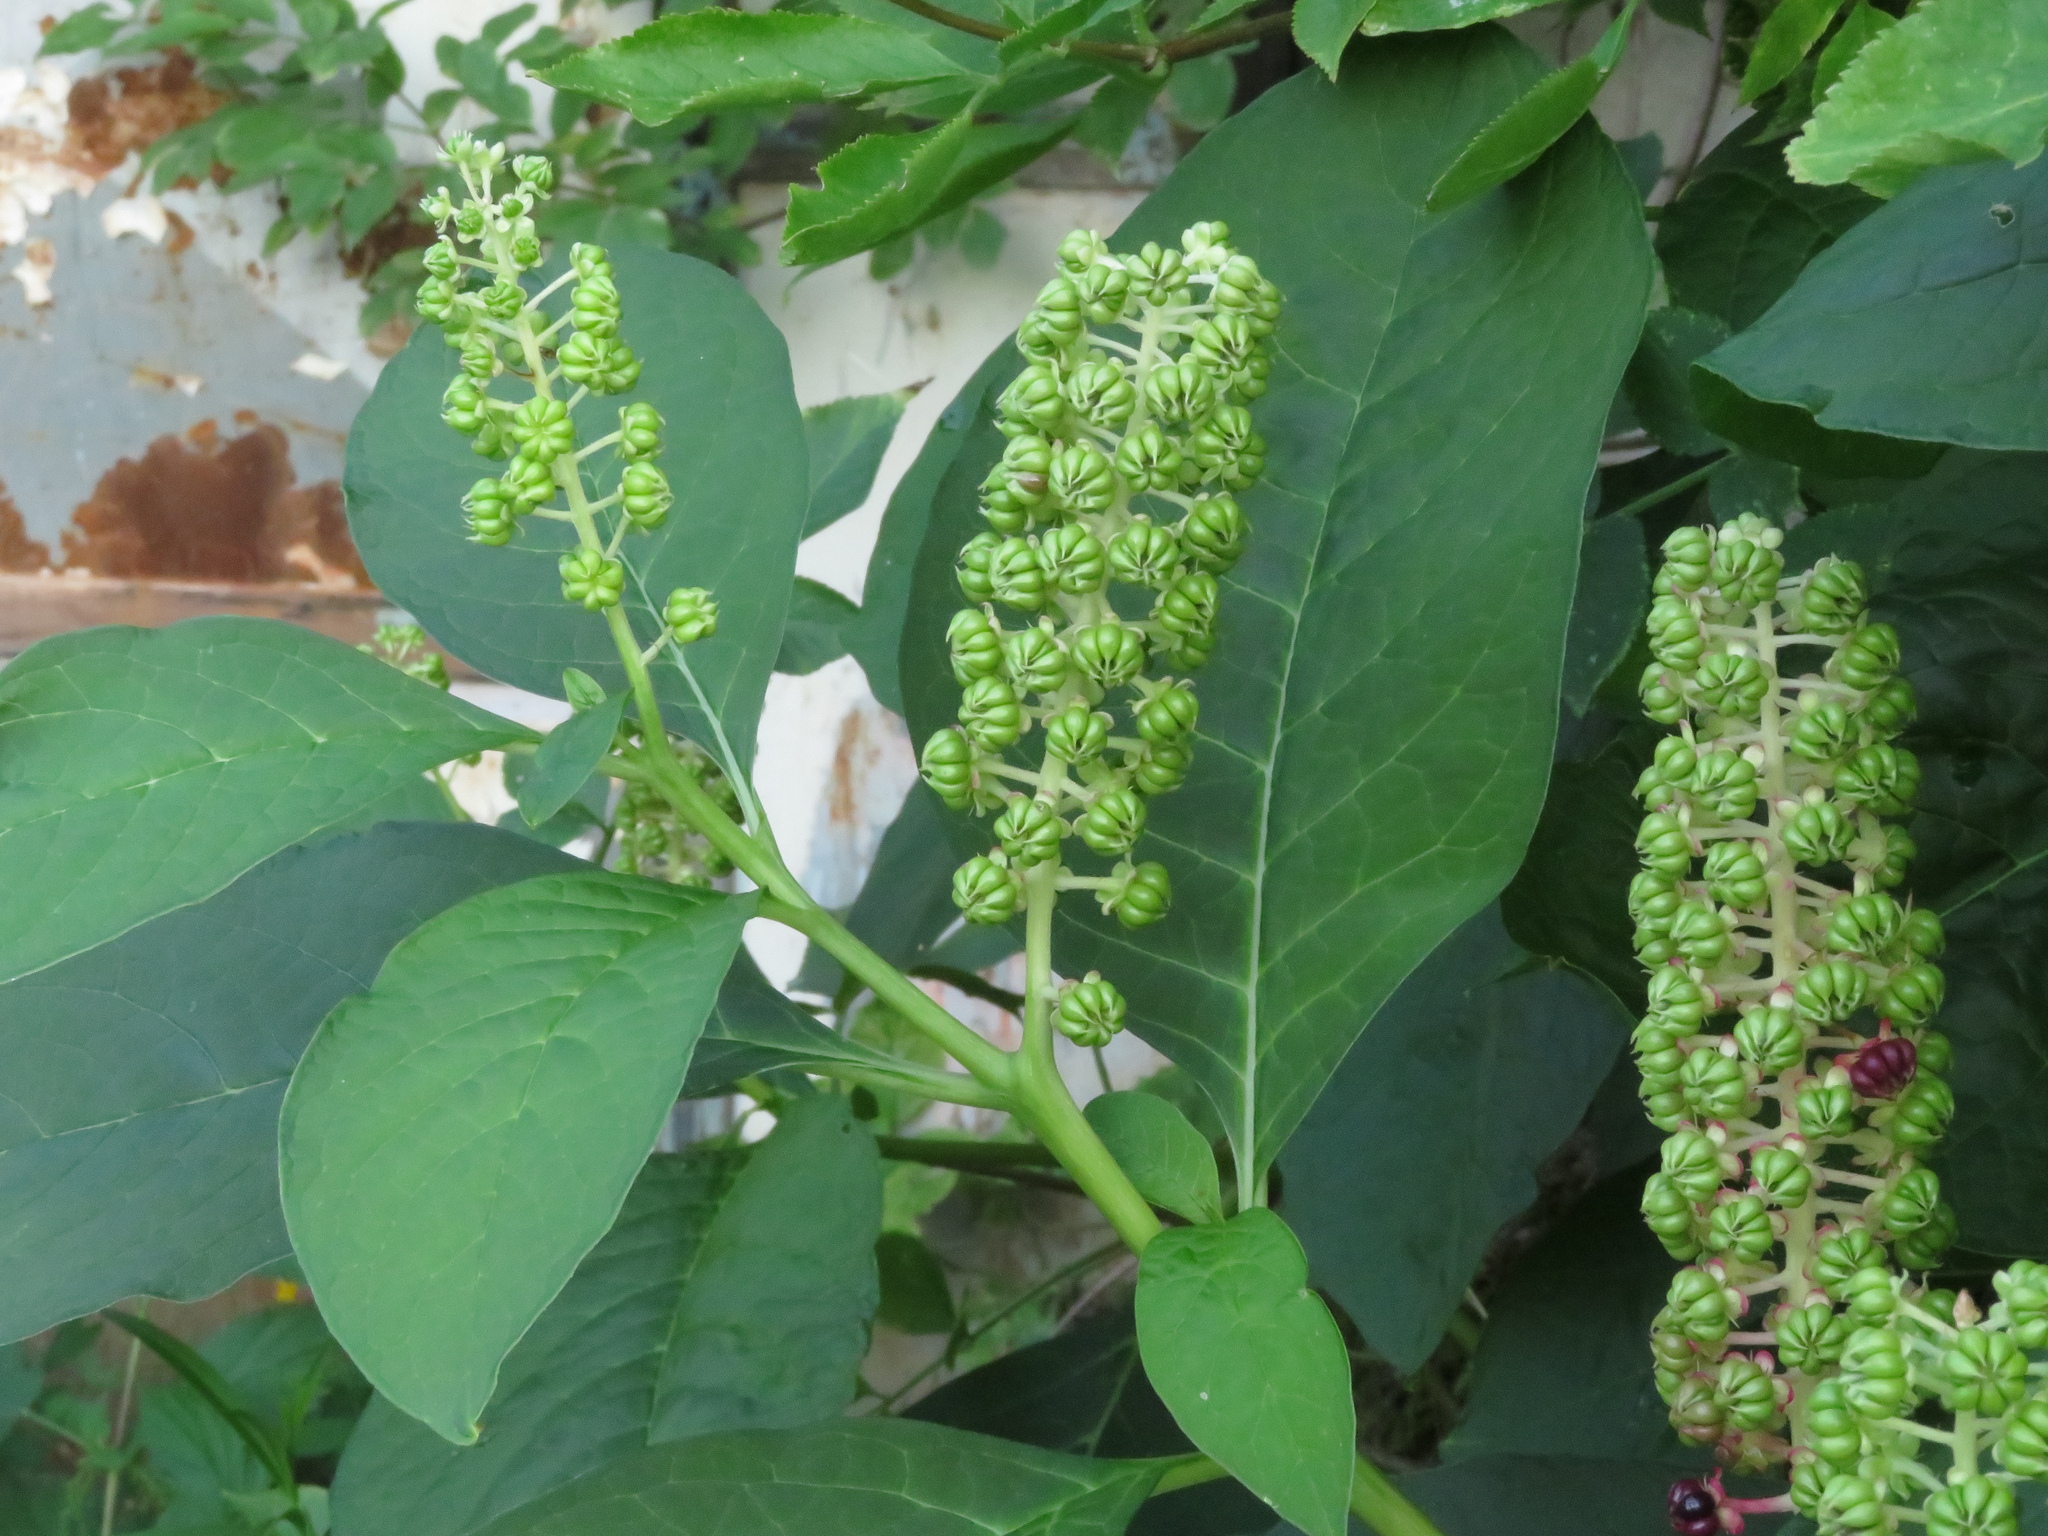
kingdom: Plantae
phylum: Tracheophyta
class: Magnoliopsida
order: Caryophyllales
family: Phytolaccaceae
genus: Phytolacca
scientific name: Phytolacca acinosa
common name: Indian pokeweed
